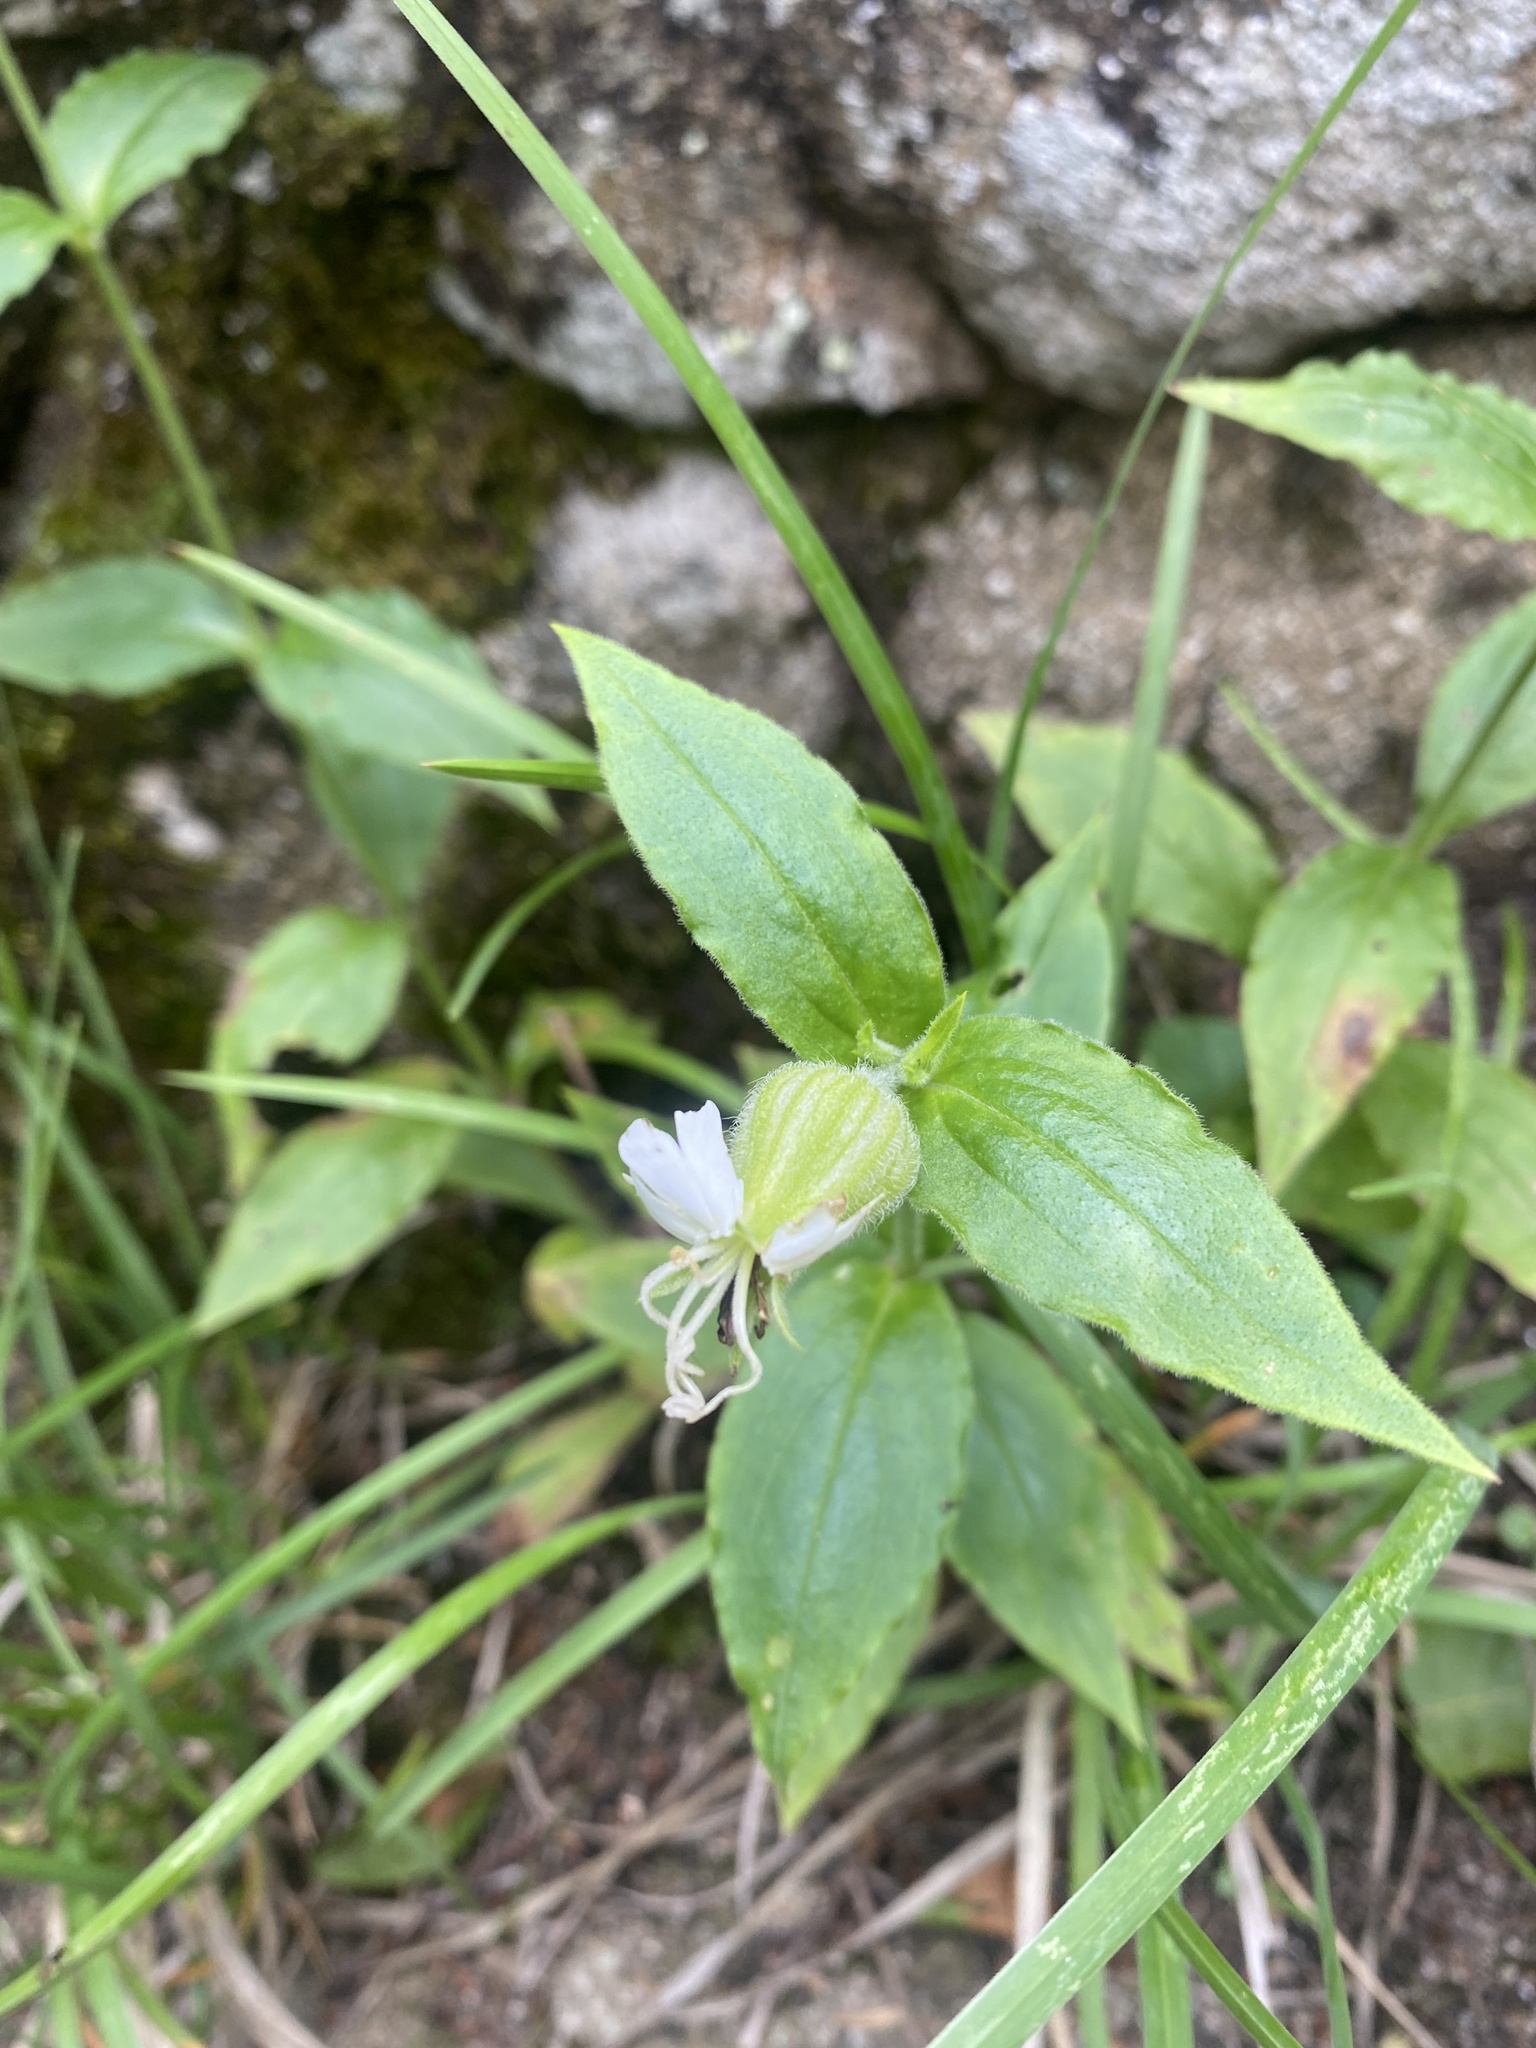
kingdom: Plantae
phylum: Tracheophyta
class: Magnoliopsida
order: Caryophyllales
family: Caryophyllaceae
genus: Silene
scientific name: Silene latifolia
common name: White campion
